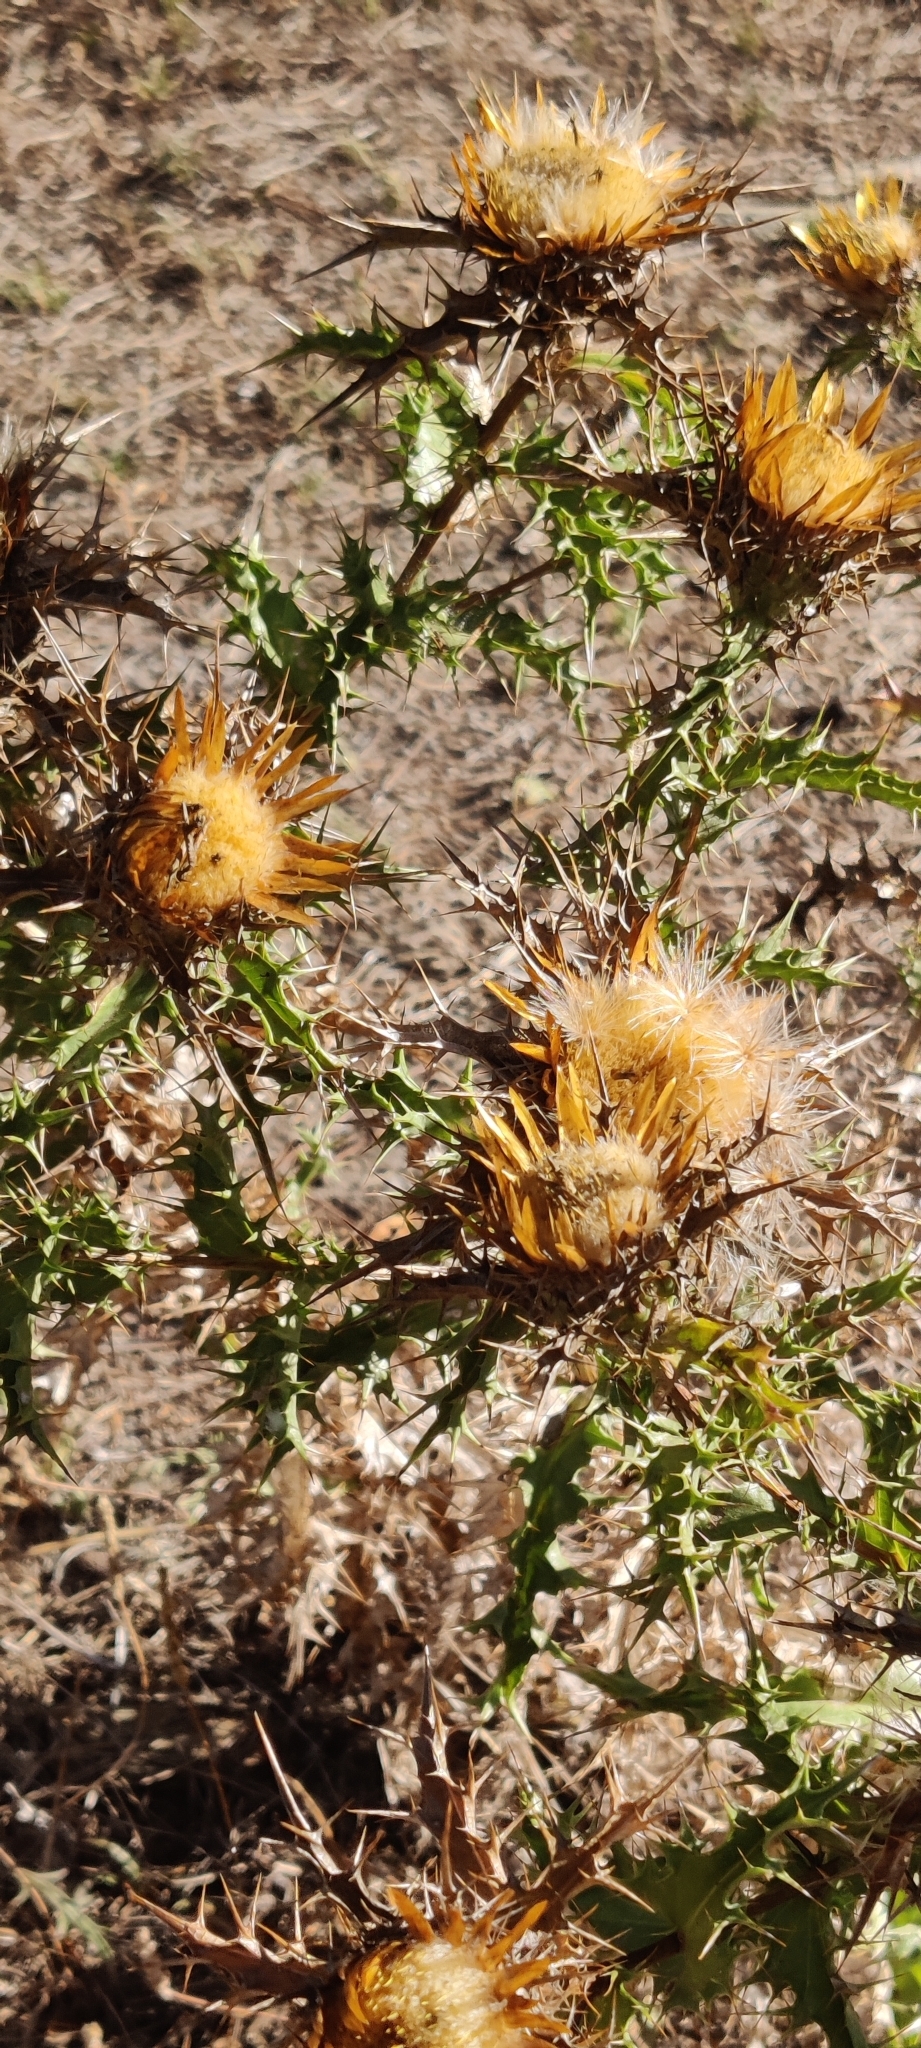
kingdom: Plantae
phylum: Tracheophyta
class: Magnoliopsida
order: Asterales
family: Asteraceae
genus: Carlina
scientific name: Carlina hispanica
